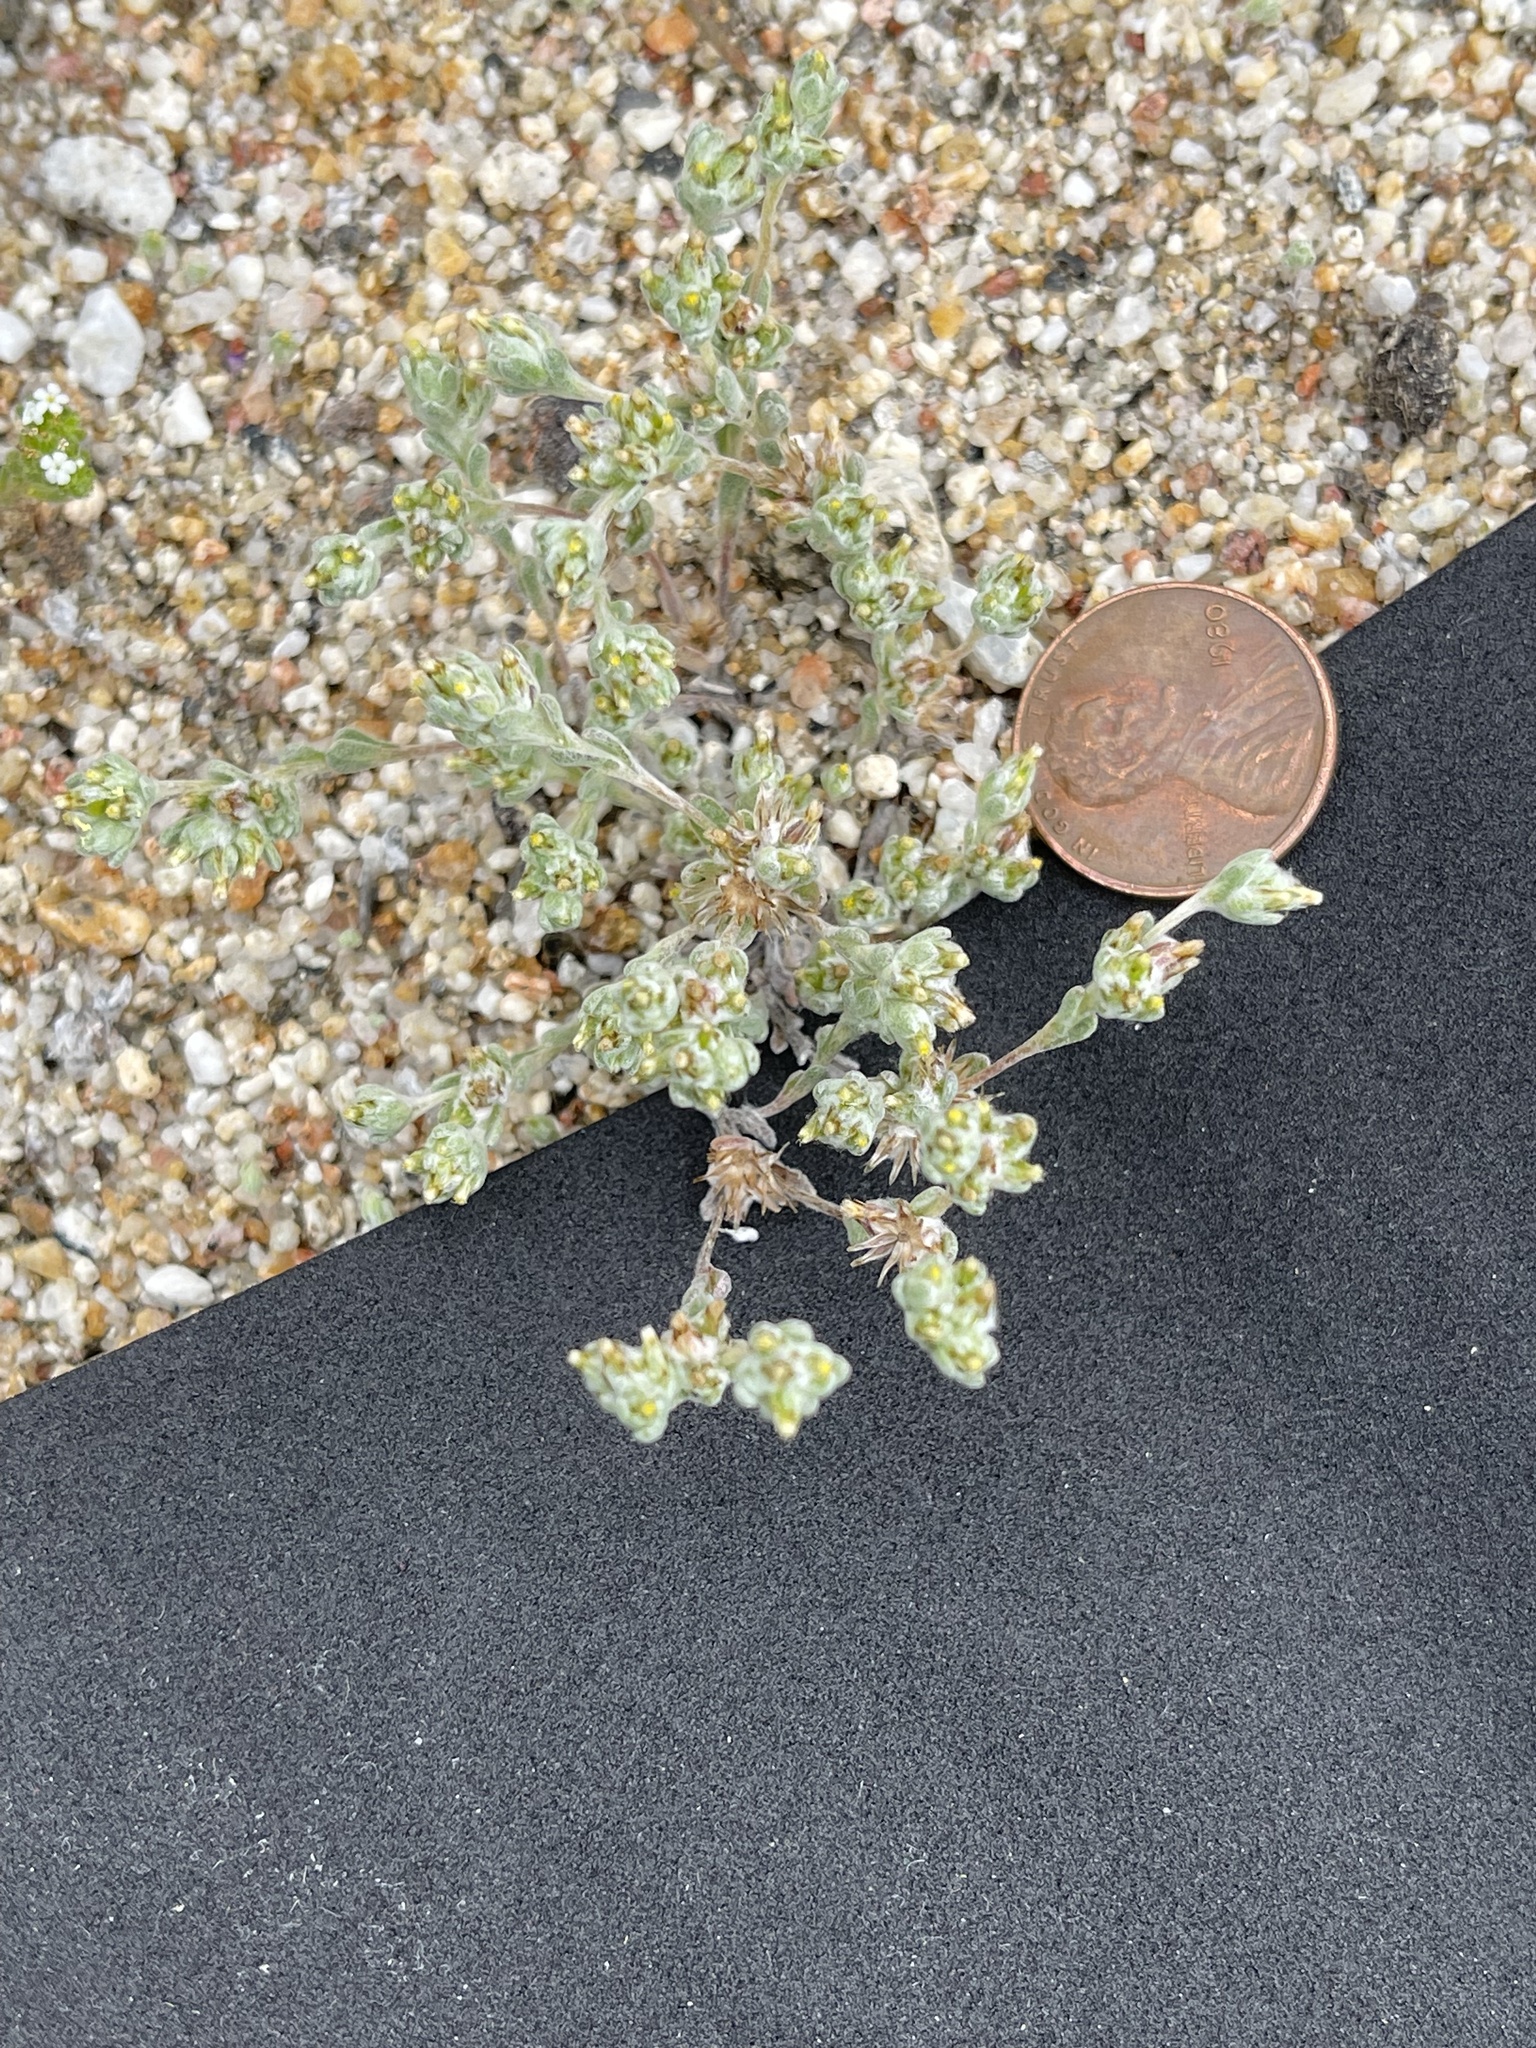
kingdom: Plantae
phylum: Tracheophyta
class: Magnoliopsida
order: Asterales
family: Asteraceae
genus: Logfia
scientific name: Logfia depressa
